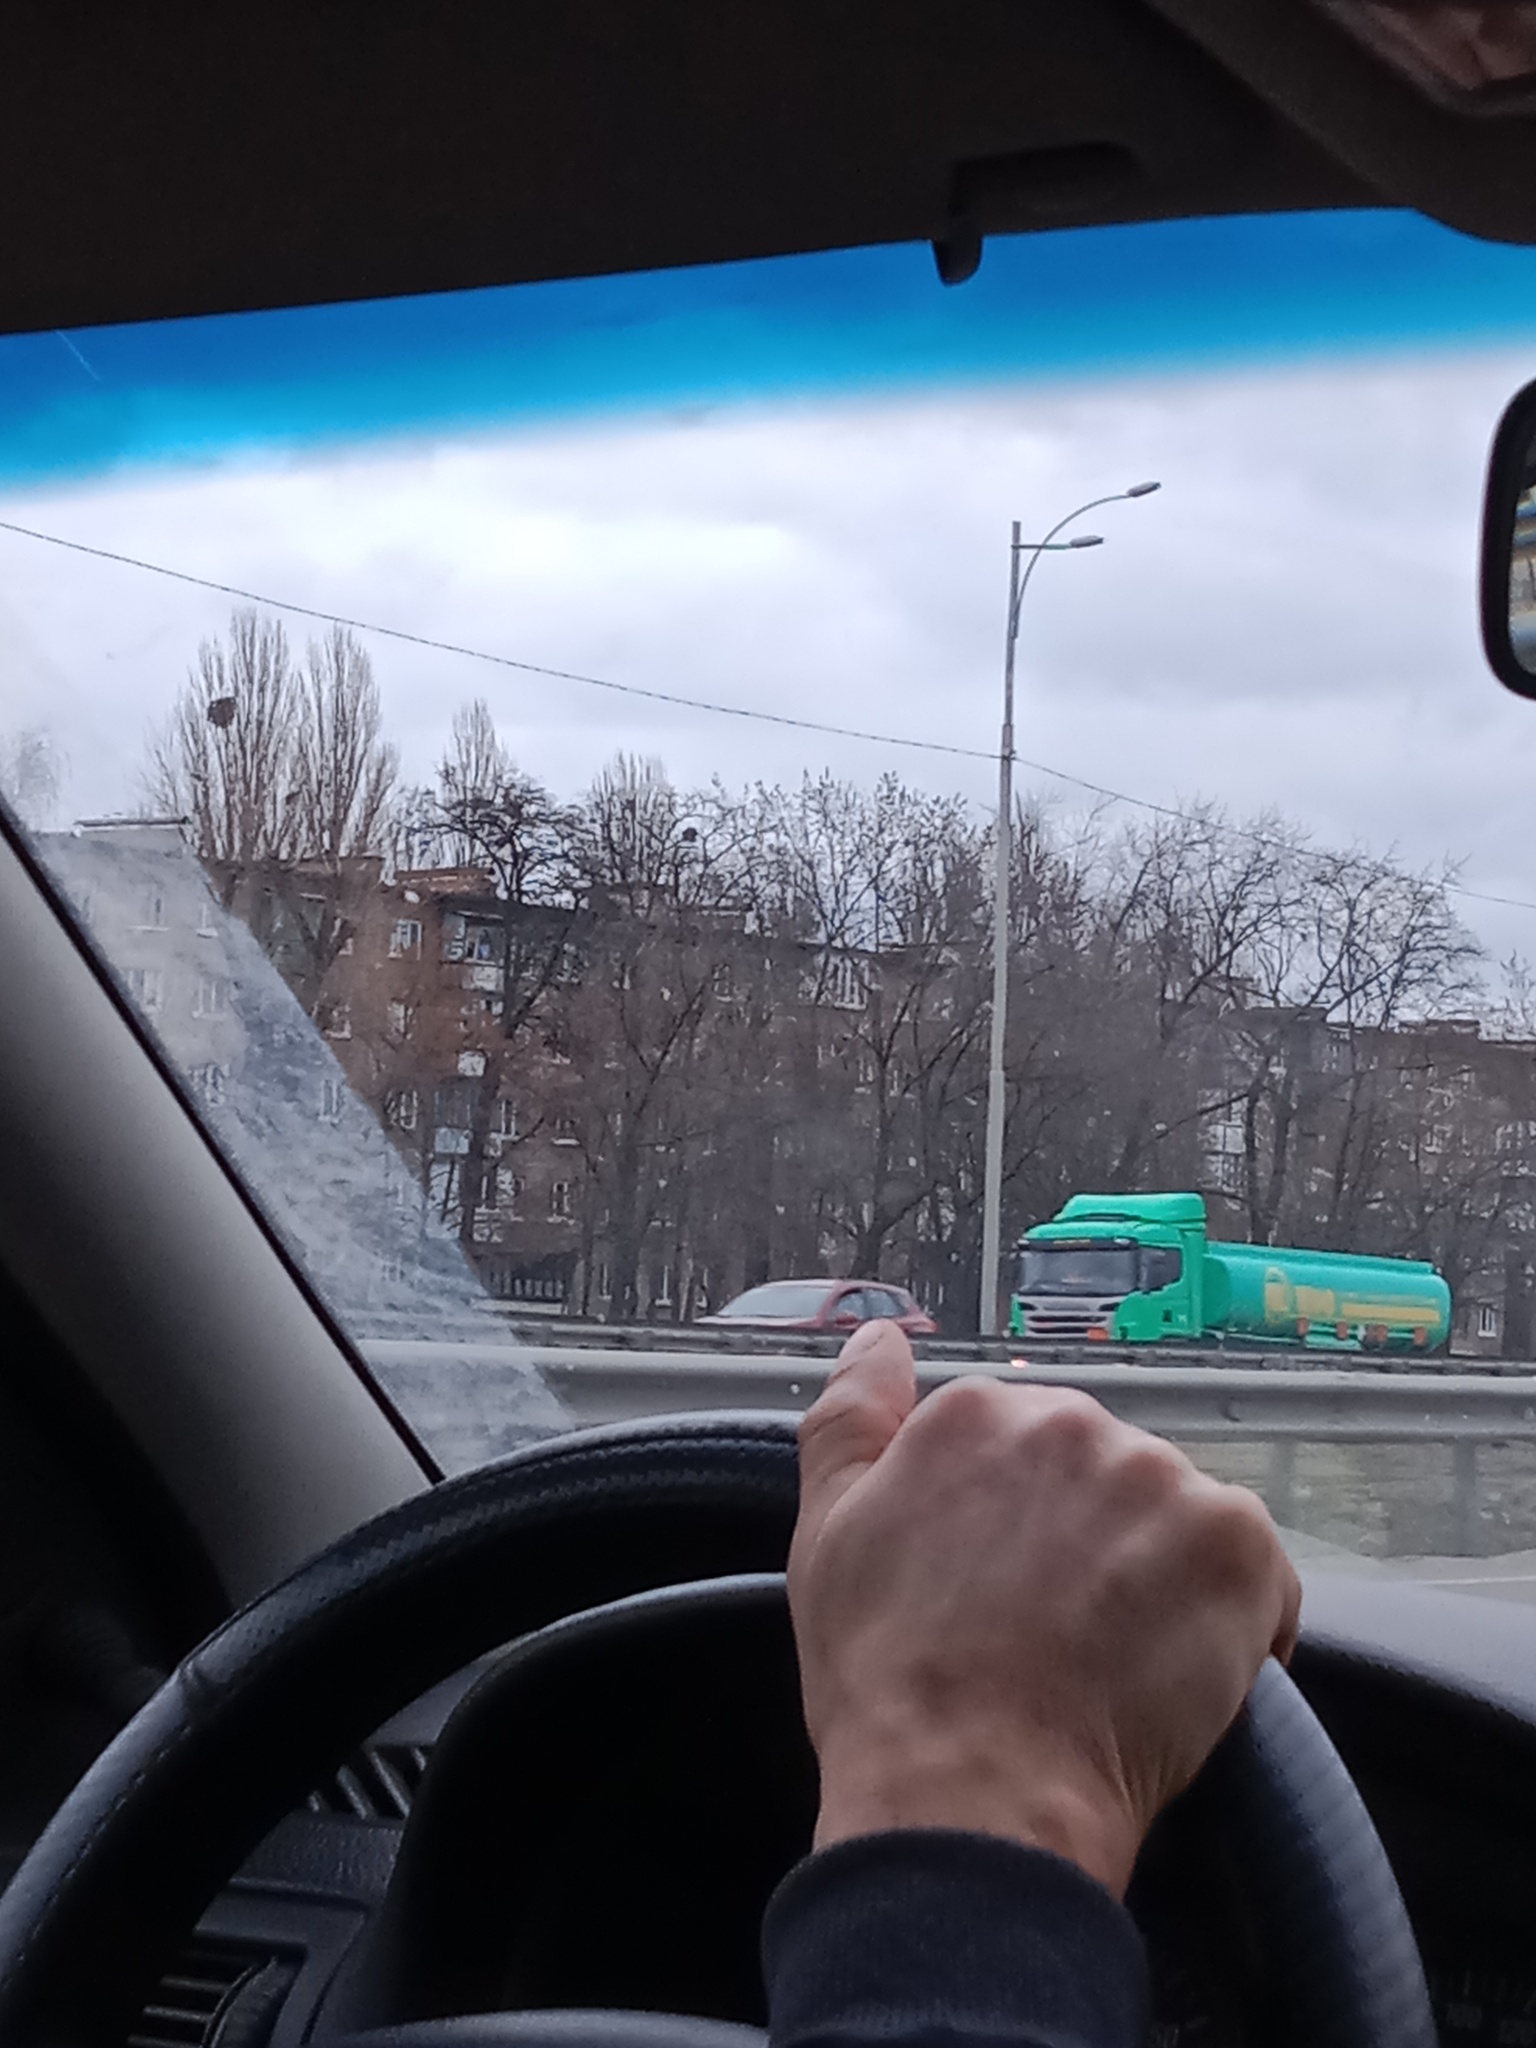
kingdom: Plantae
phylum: Tracheophyta
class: Magnoliopsida
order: Santalales
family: Viscaceae
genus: Viscum
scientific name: Viscum album
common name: Mistletoe
